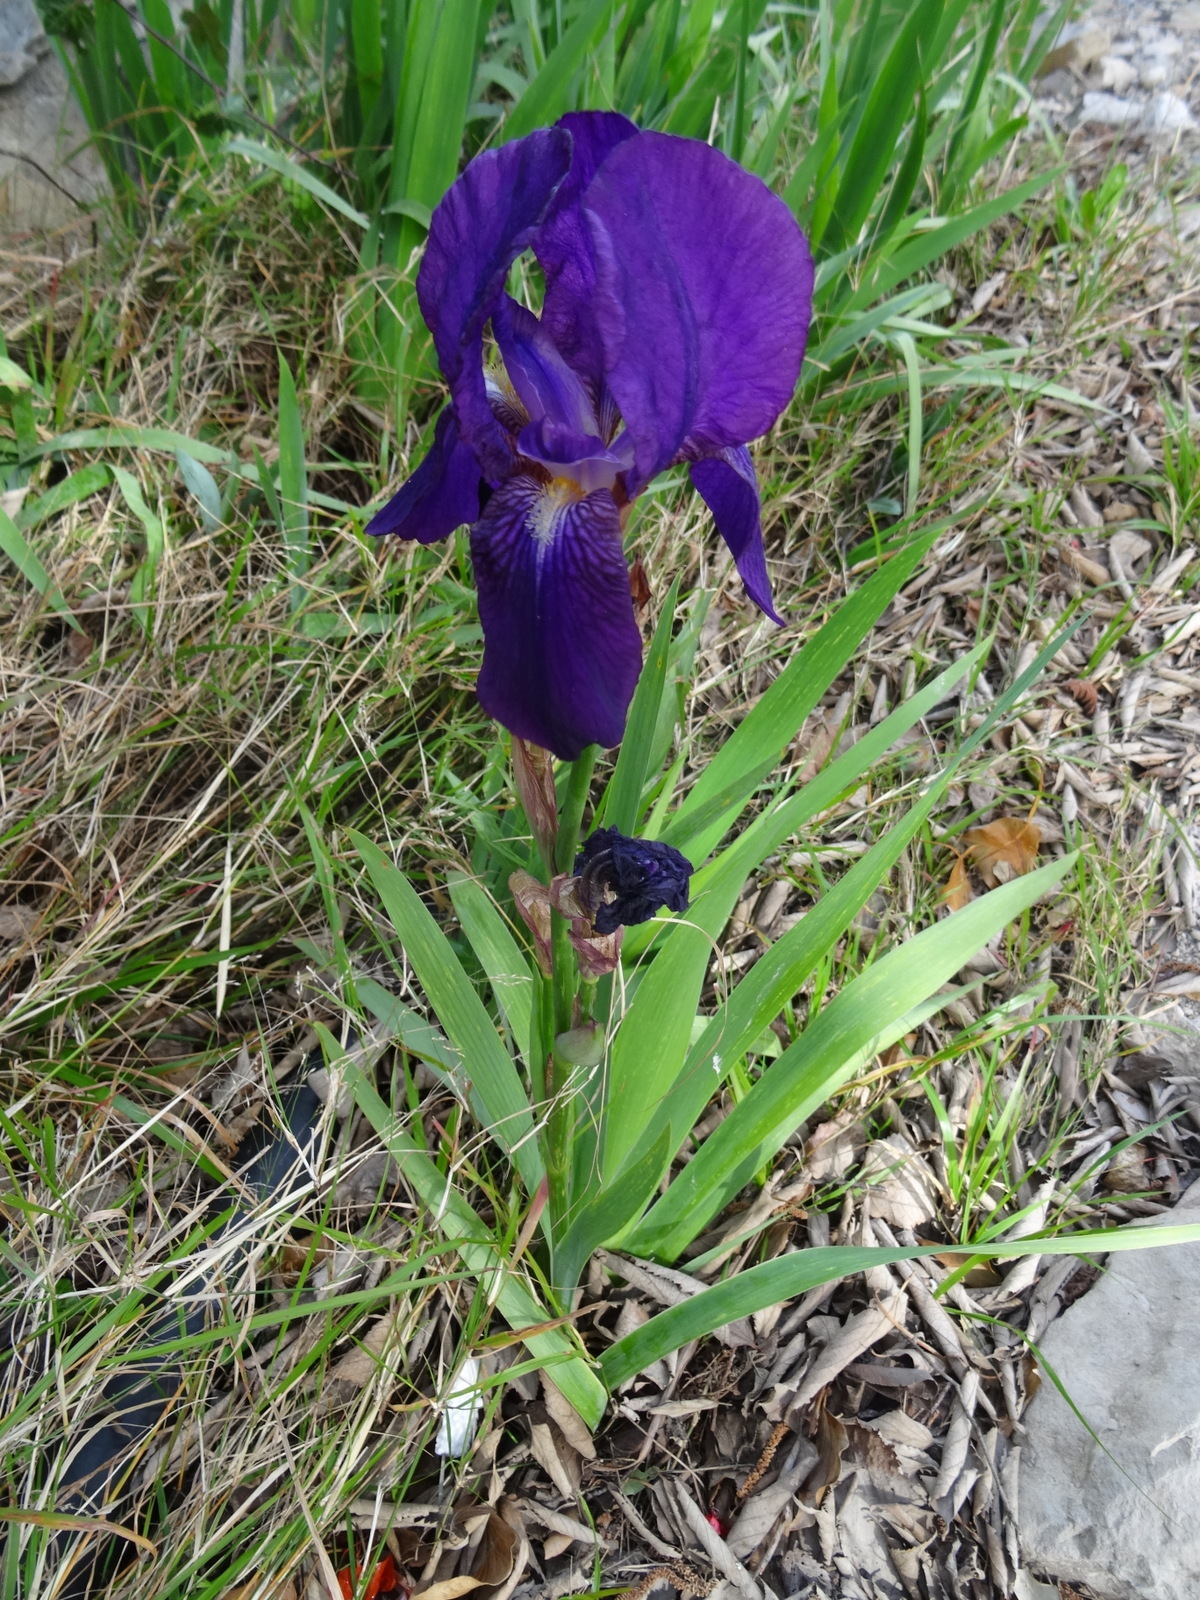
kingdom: Plantae
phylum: Tracheophyta
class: Liliopsida
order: Asparagales
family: Iridaceae
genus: Iris
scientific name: Iris germanica
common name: German iris
